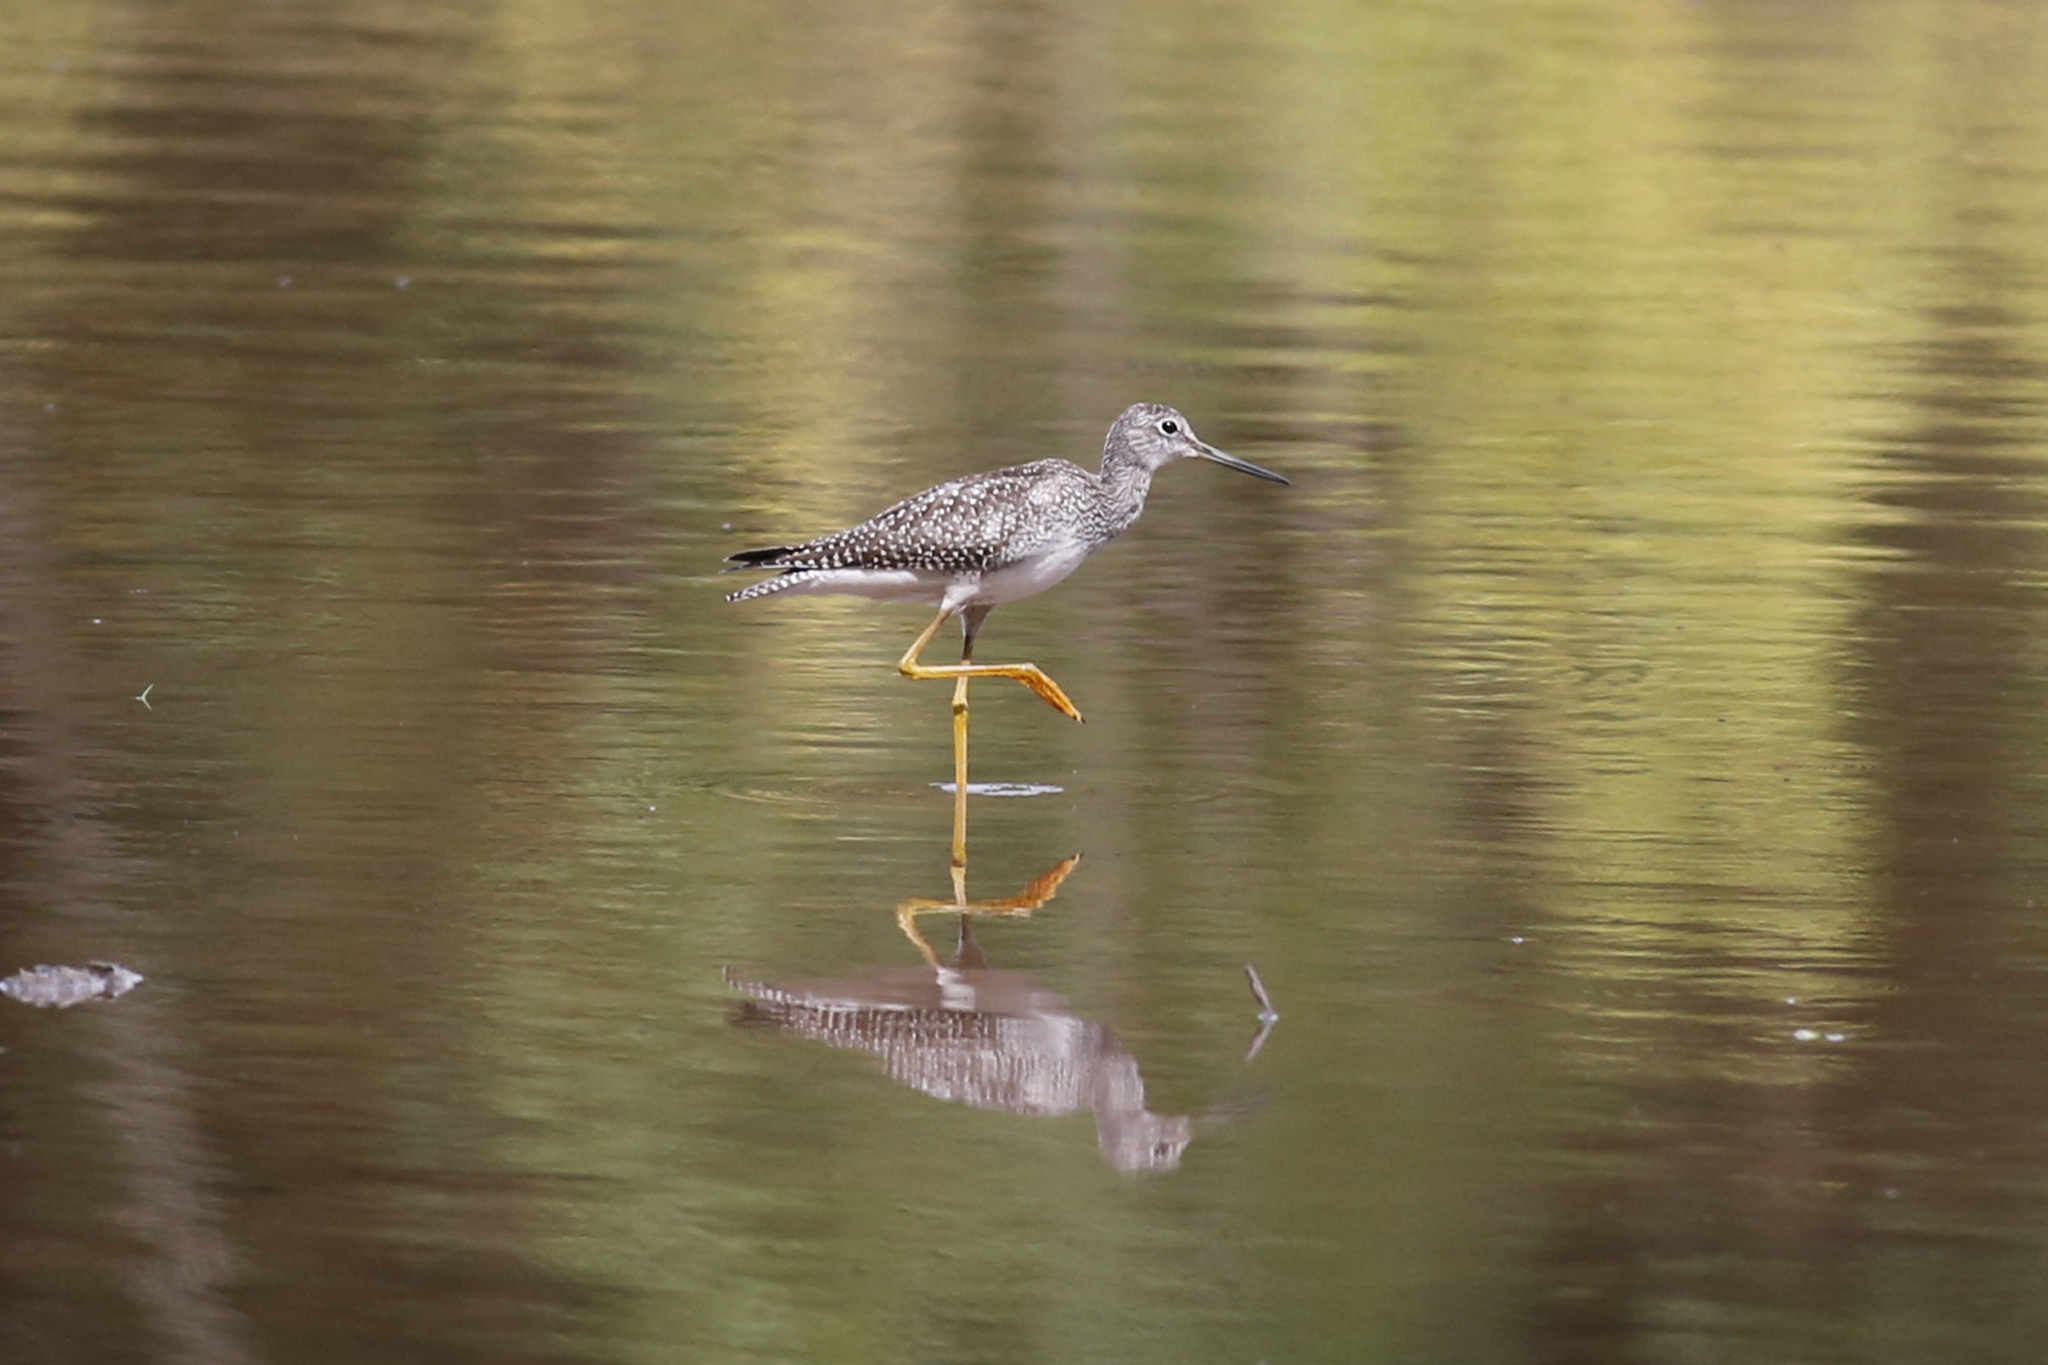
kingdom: Animalia
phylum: Chordata
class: Aves
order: Charadriiformes
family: Scolopacidae
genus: Tringa
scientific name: Tringa melanoleuca
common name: Greater yellowlegs
